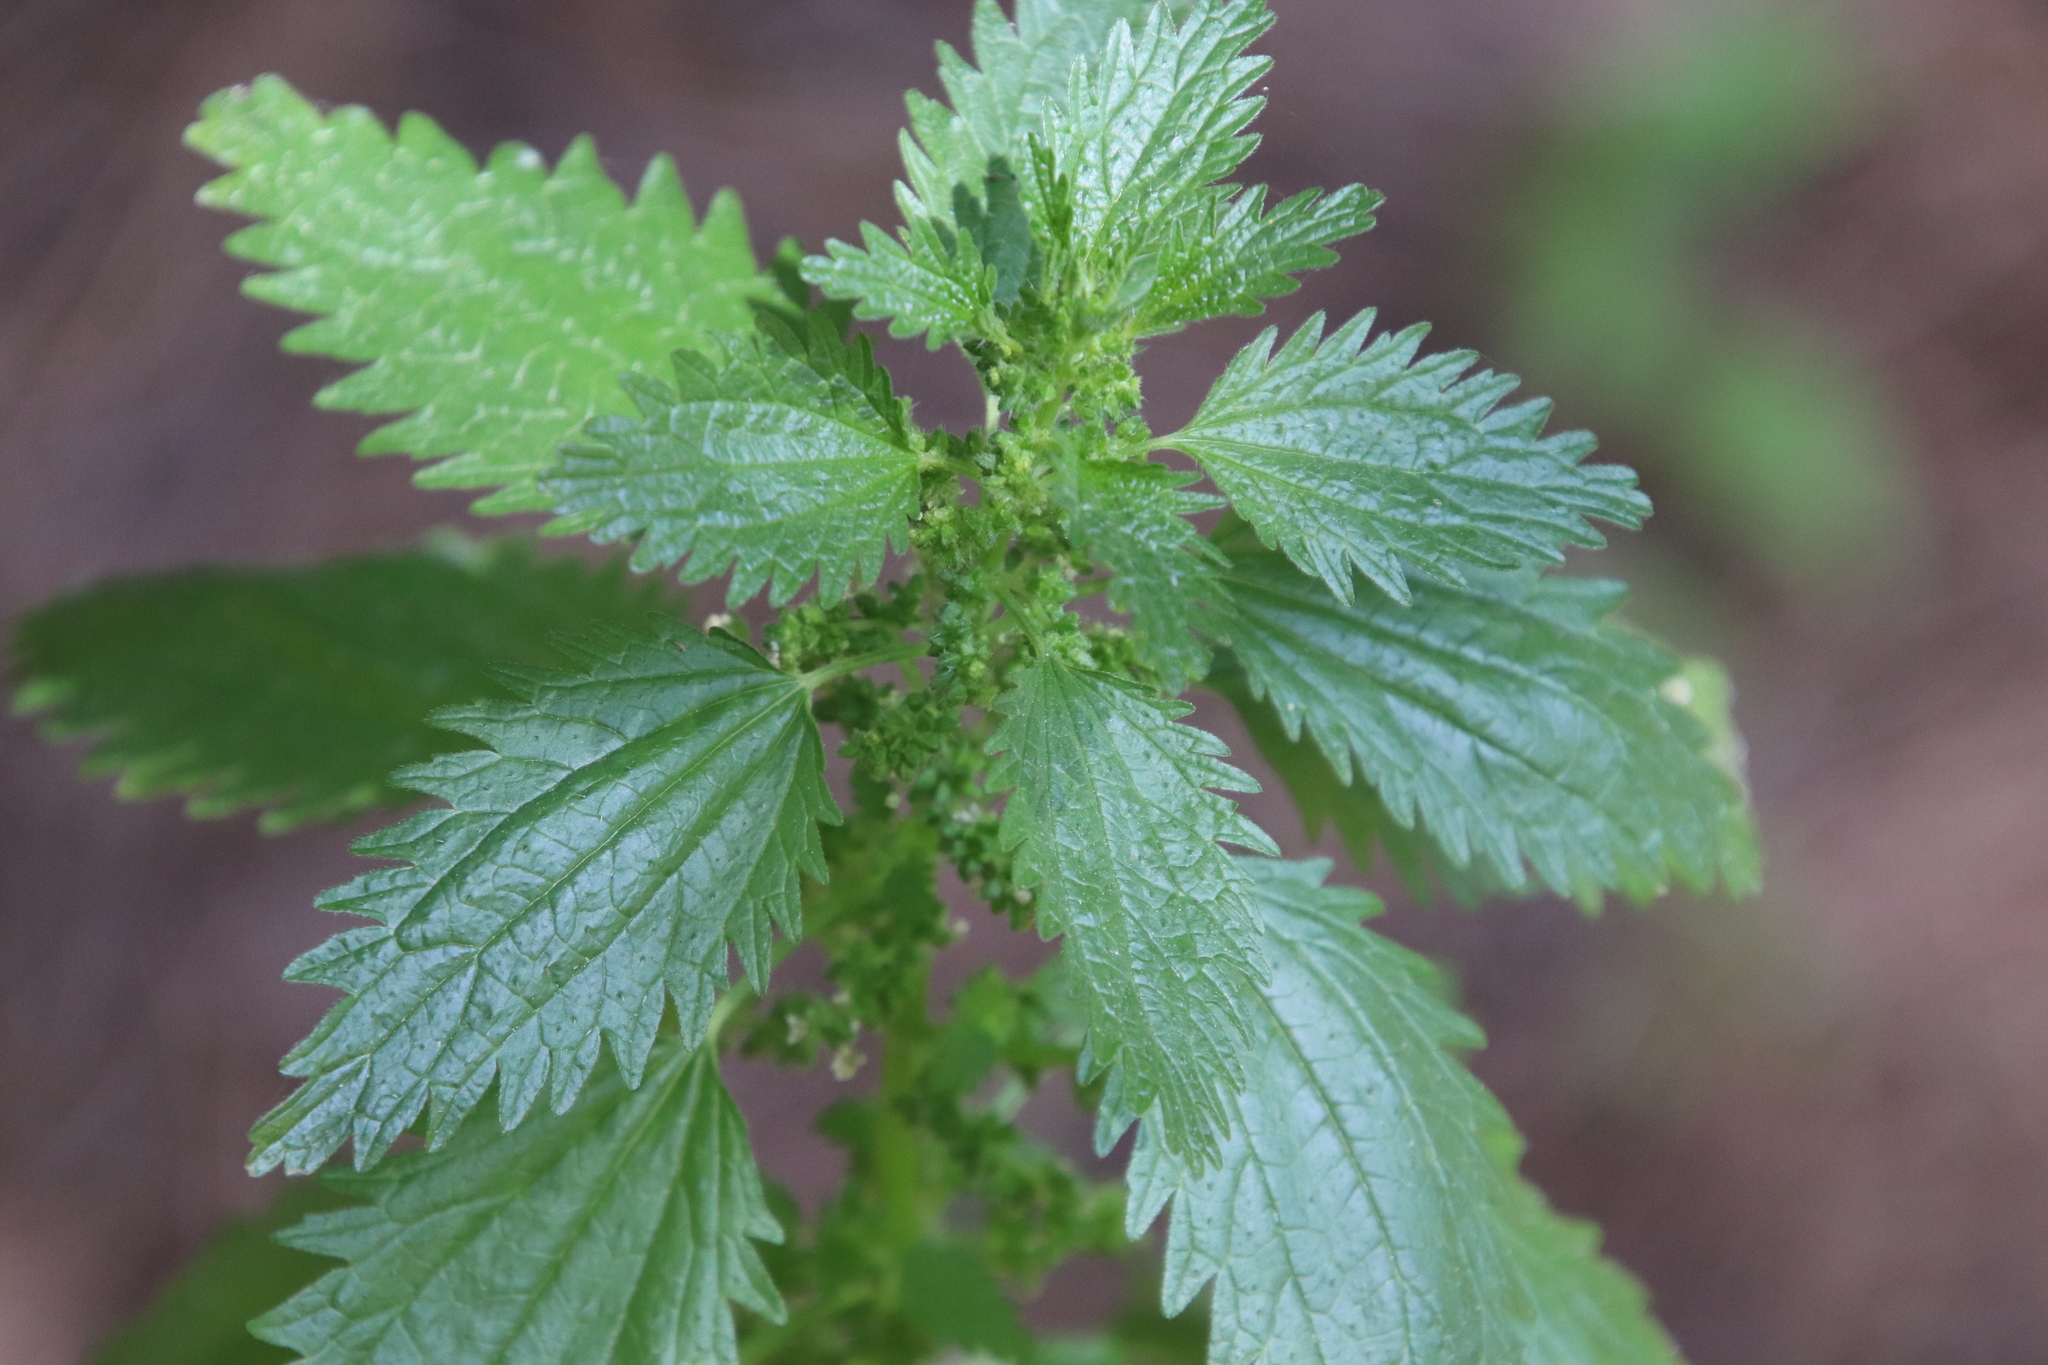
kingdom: Plantae
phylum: Tracheophyta
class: Magnoliopsida
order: Rosales
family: Urticaceae
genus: Urtica
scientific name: Urtica urens
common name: Dwarf nettle
